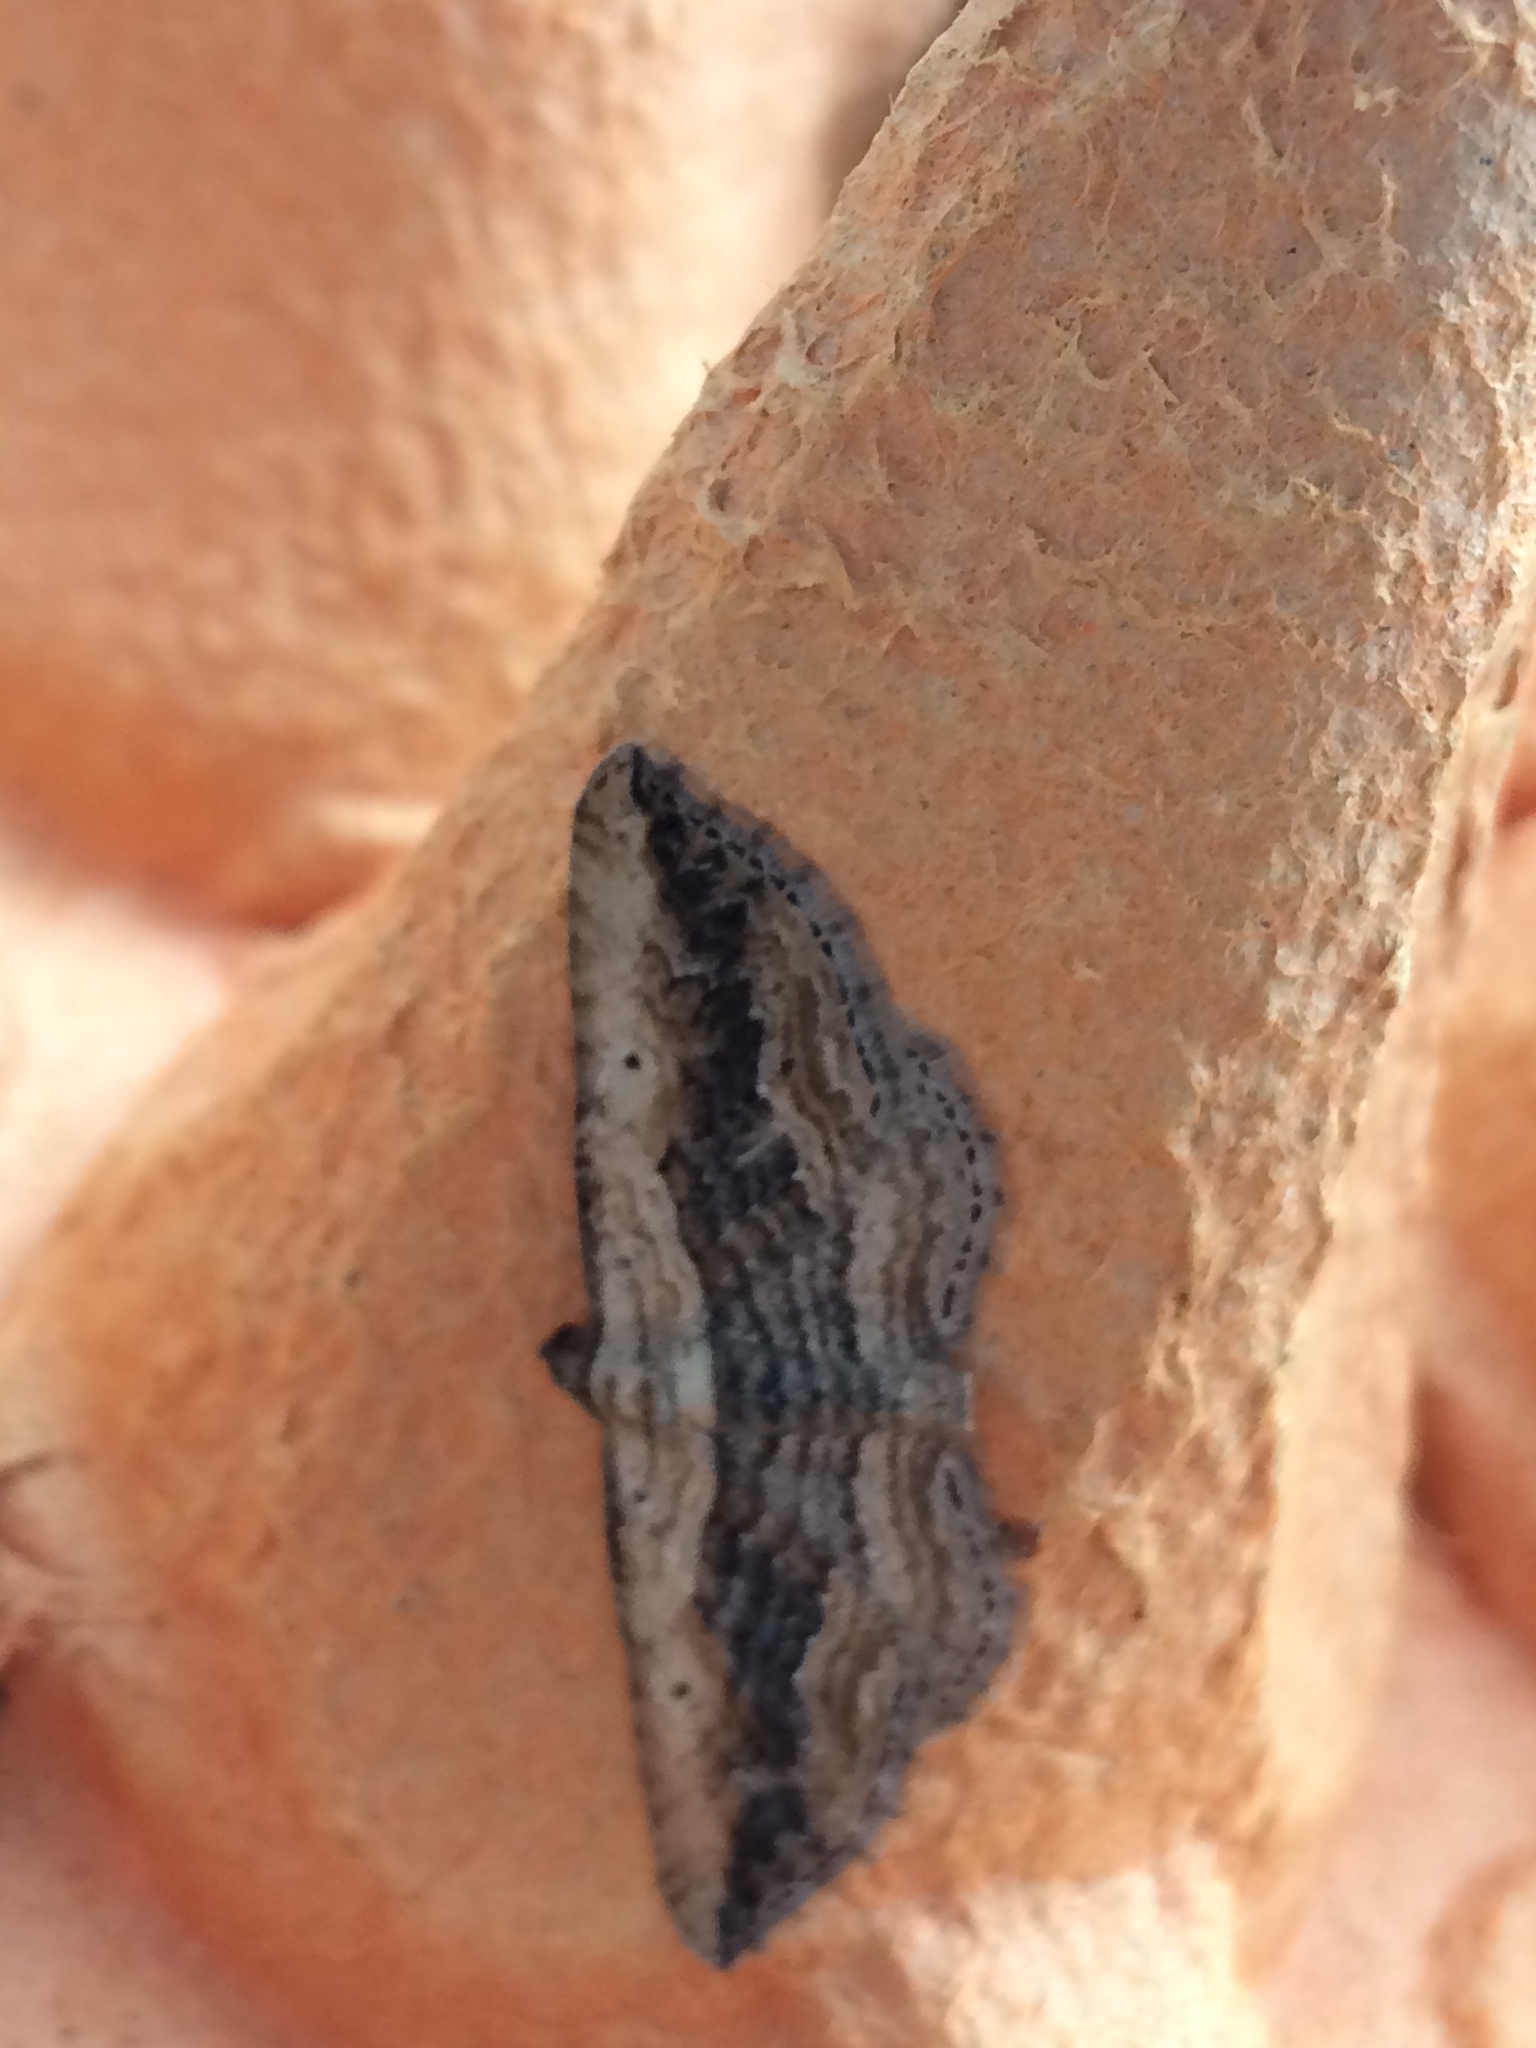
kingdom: Animalia
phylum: Arthropoda
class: Insecta
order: Lepidoptera
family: Geometridae
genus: Horisme
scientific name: Horisme vitalbata
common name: Small waved umber
